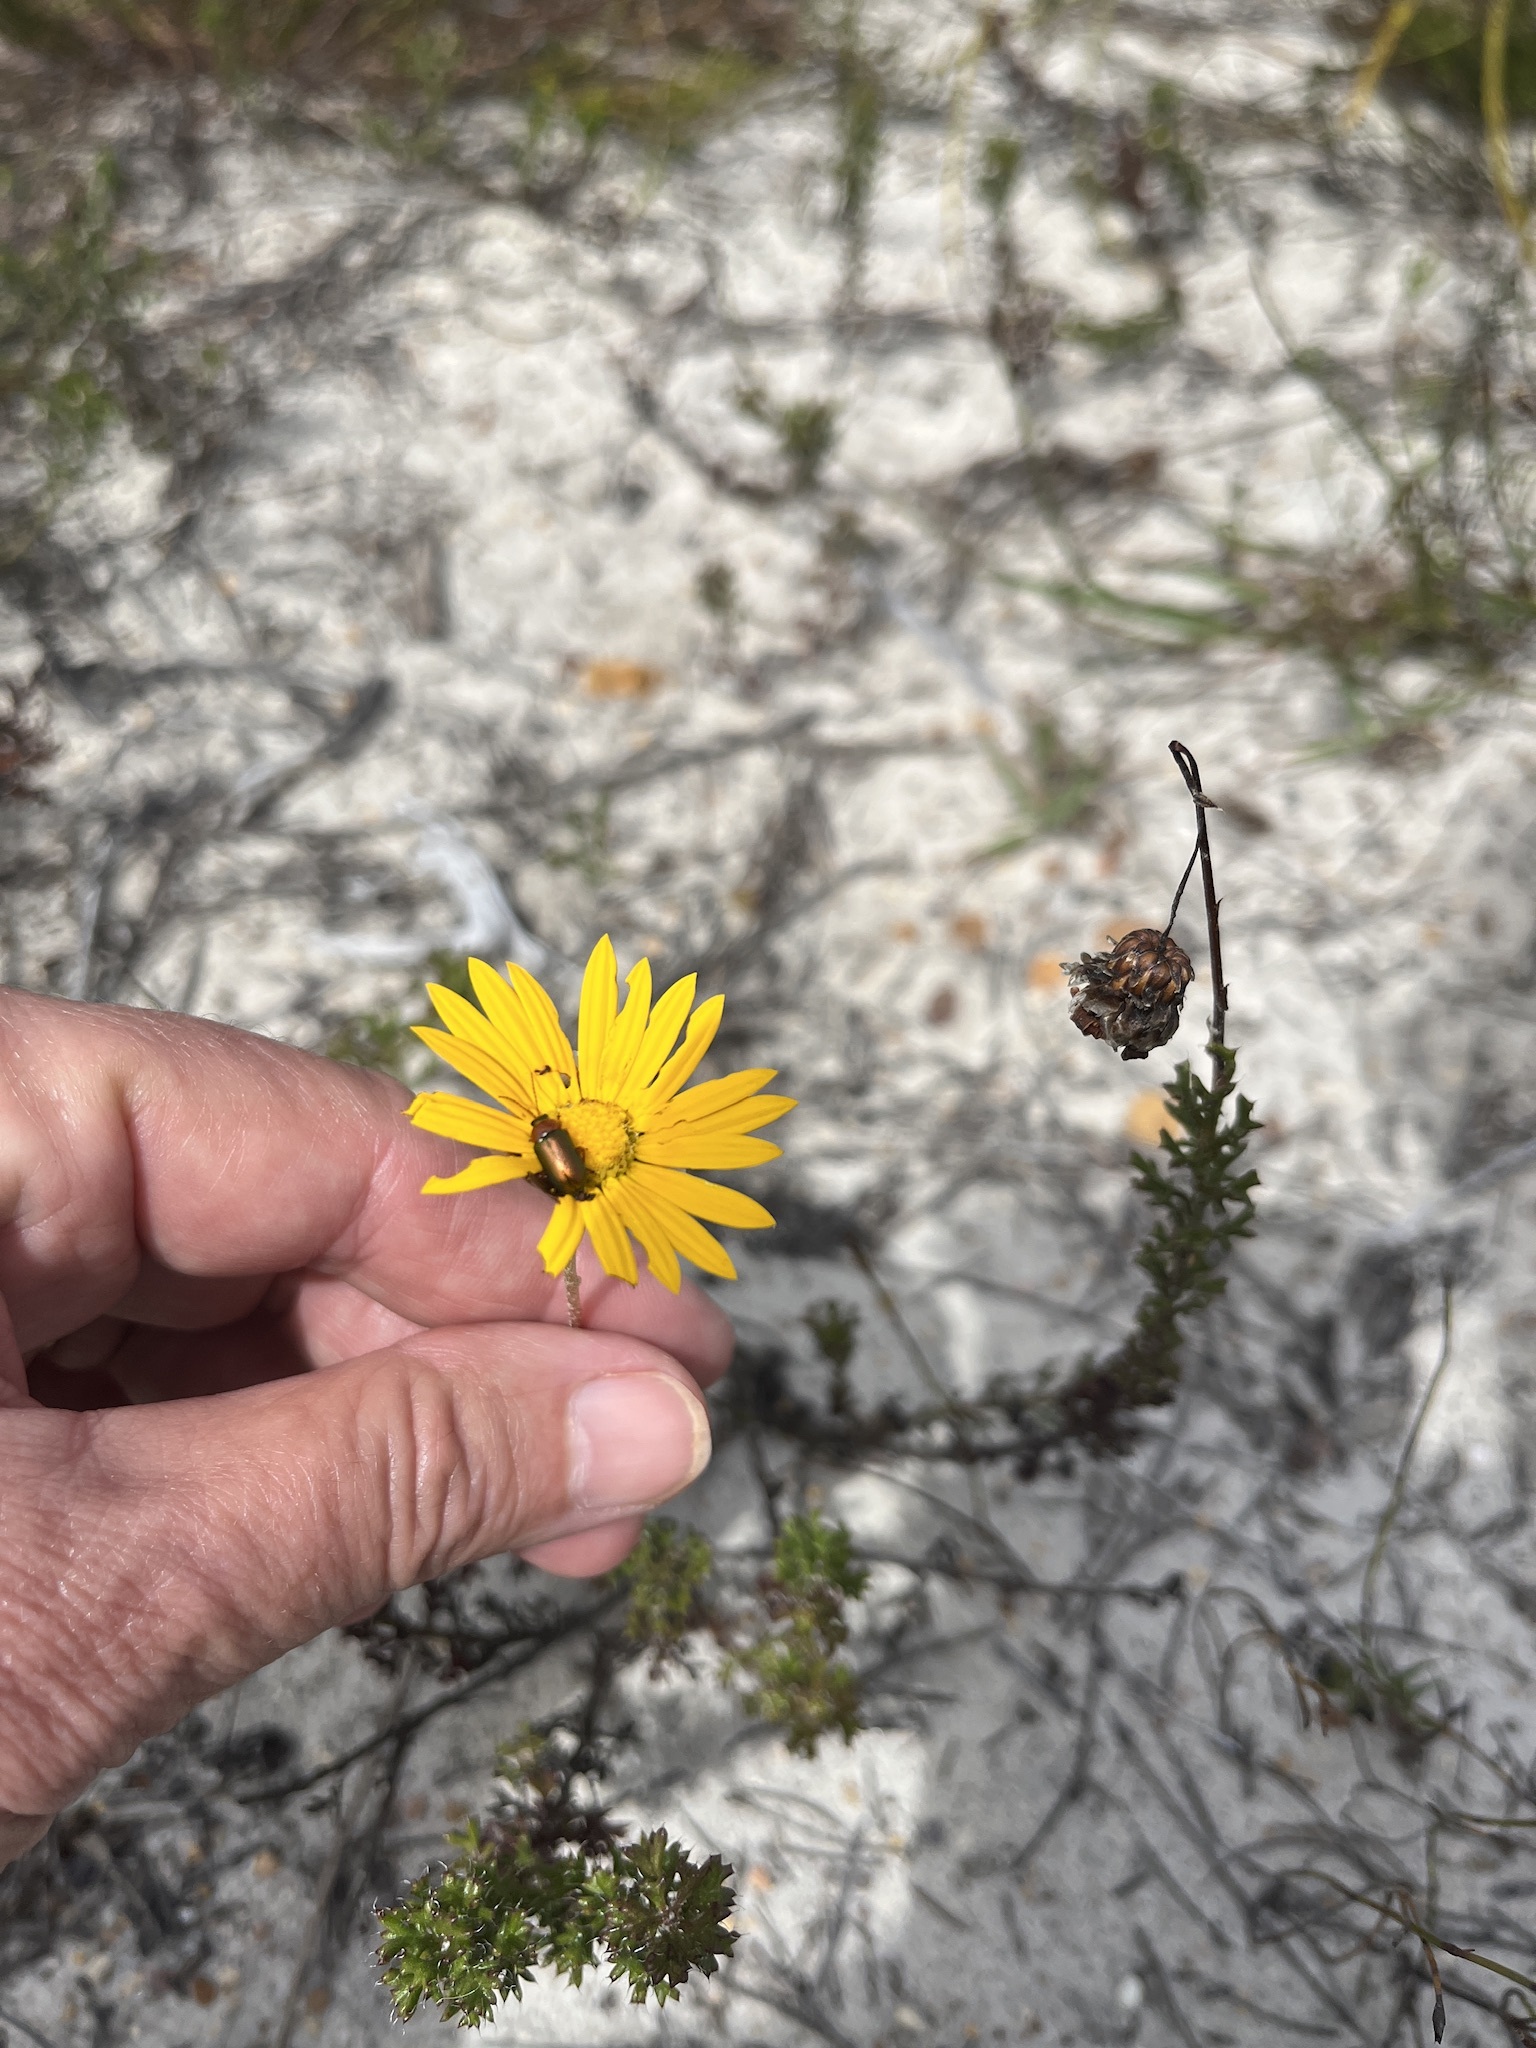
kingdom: Plantae
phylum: Tracheophyta
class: Magnoliopsida
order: Asterales
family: Asteraceae
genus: Ursinia
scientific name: Ursinia dentata
